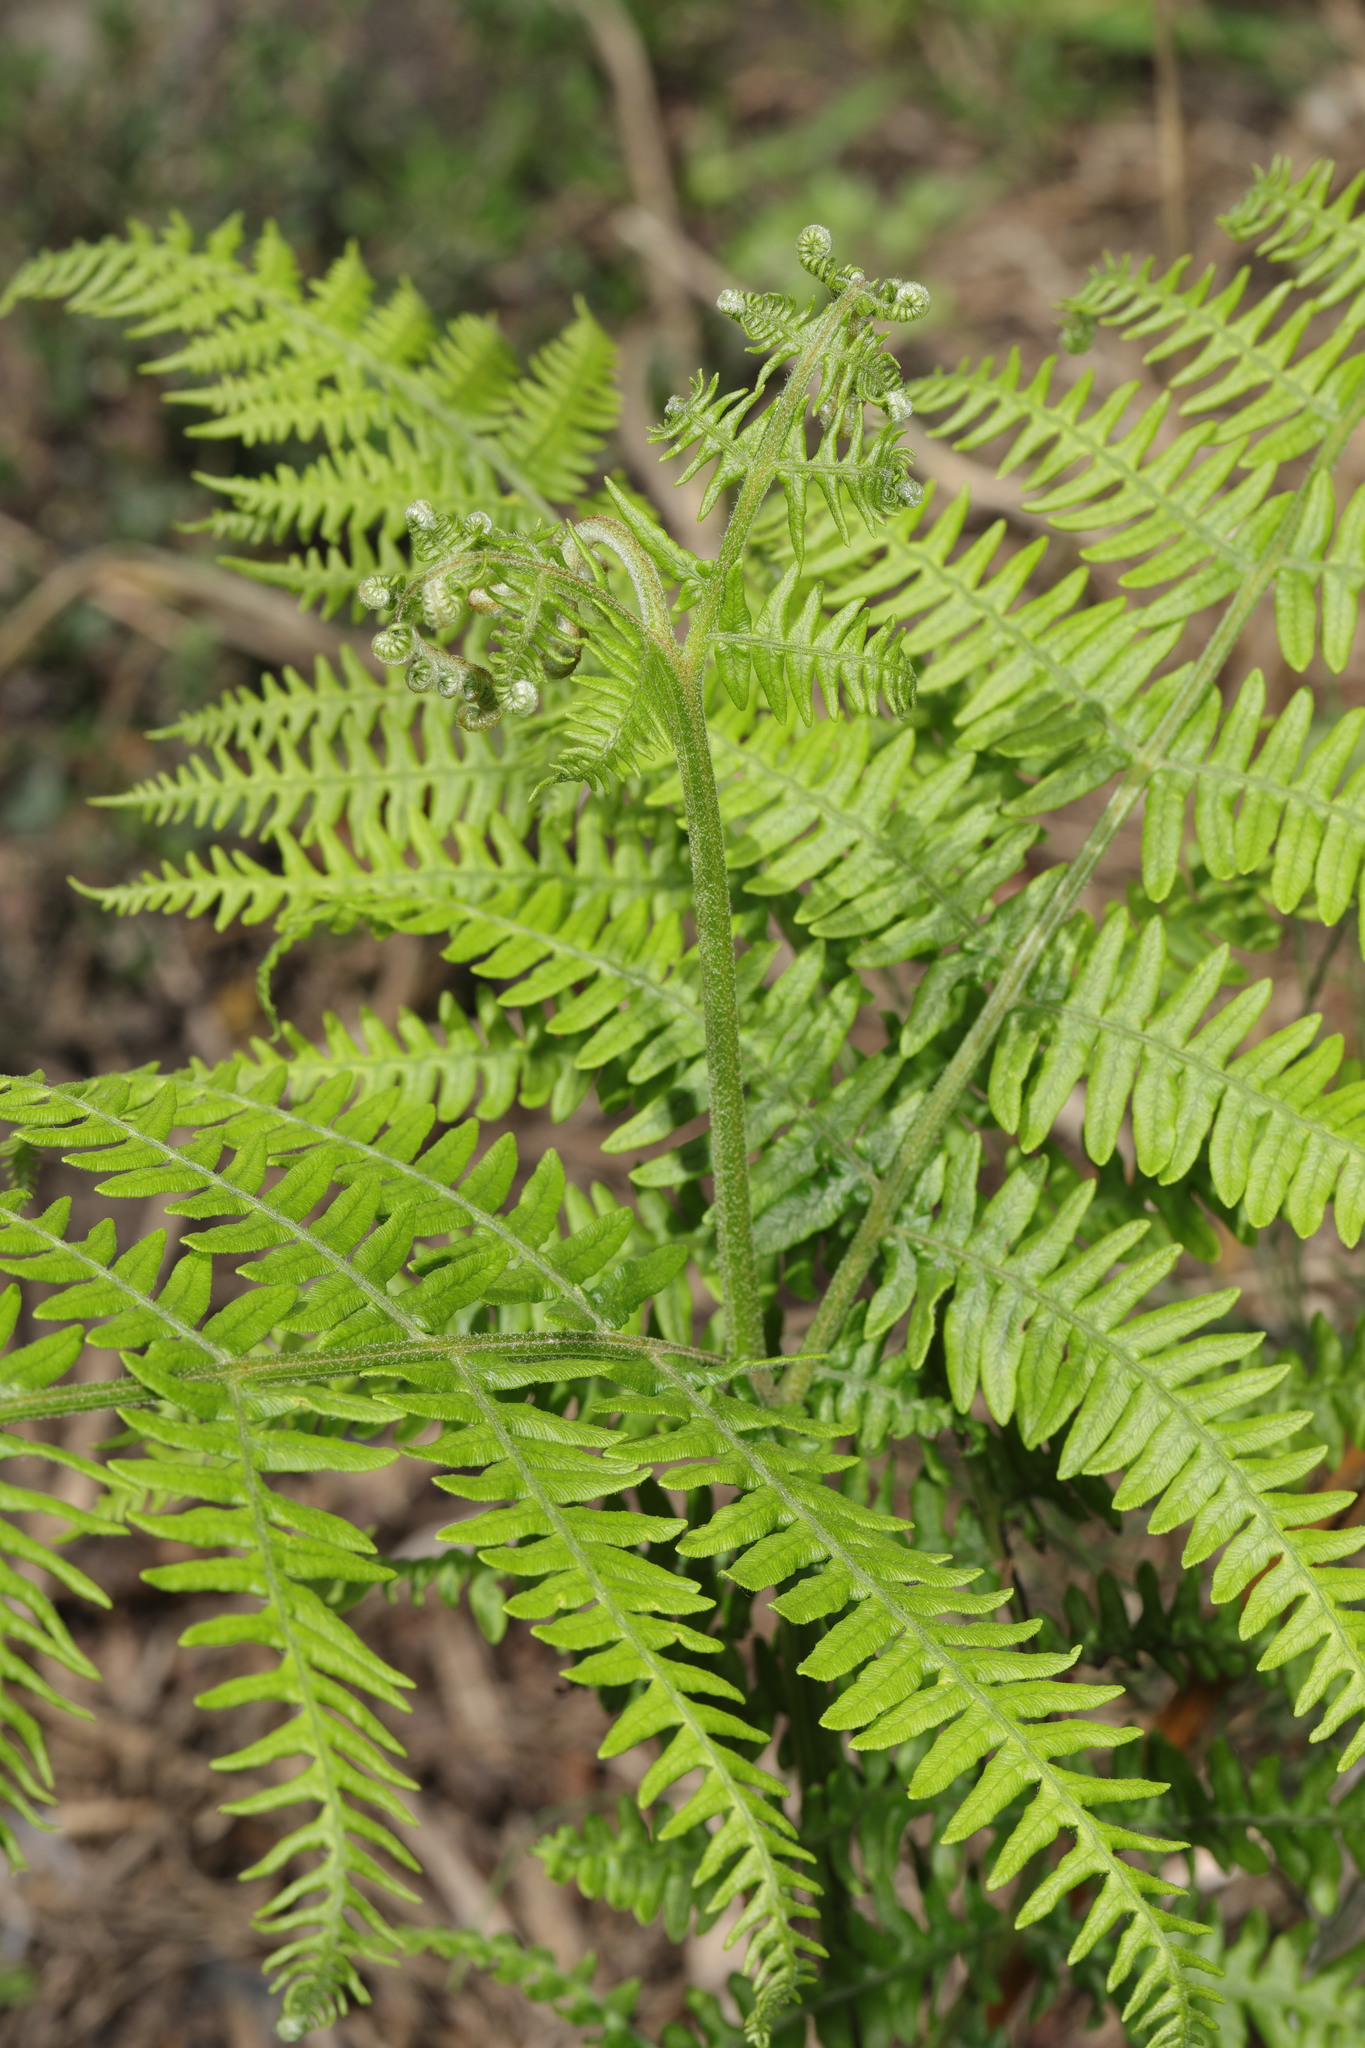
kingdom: Plantae
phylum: Tracheophyta
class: Polypodiopsida
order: Polypodiales
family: Dennstaedtiaceae
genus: Pteridium
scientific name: Pteridium aquilinum
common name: Bracken
